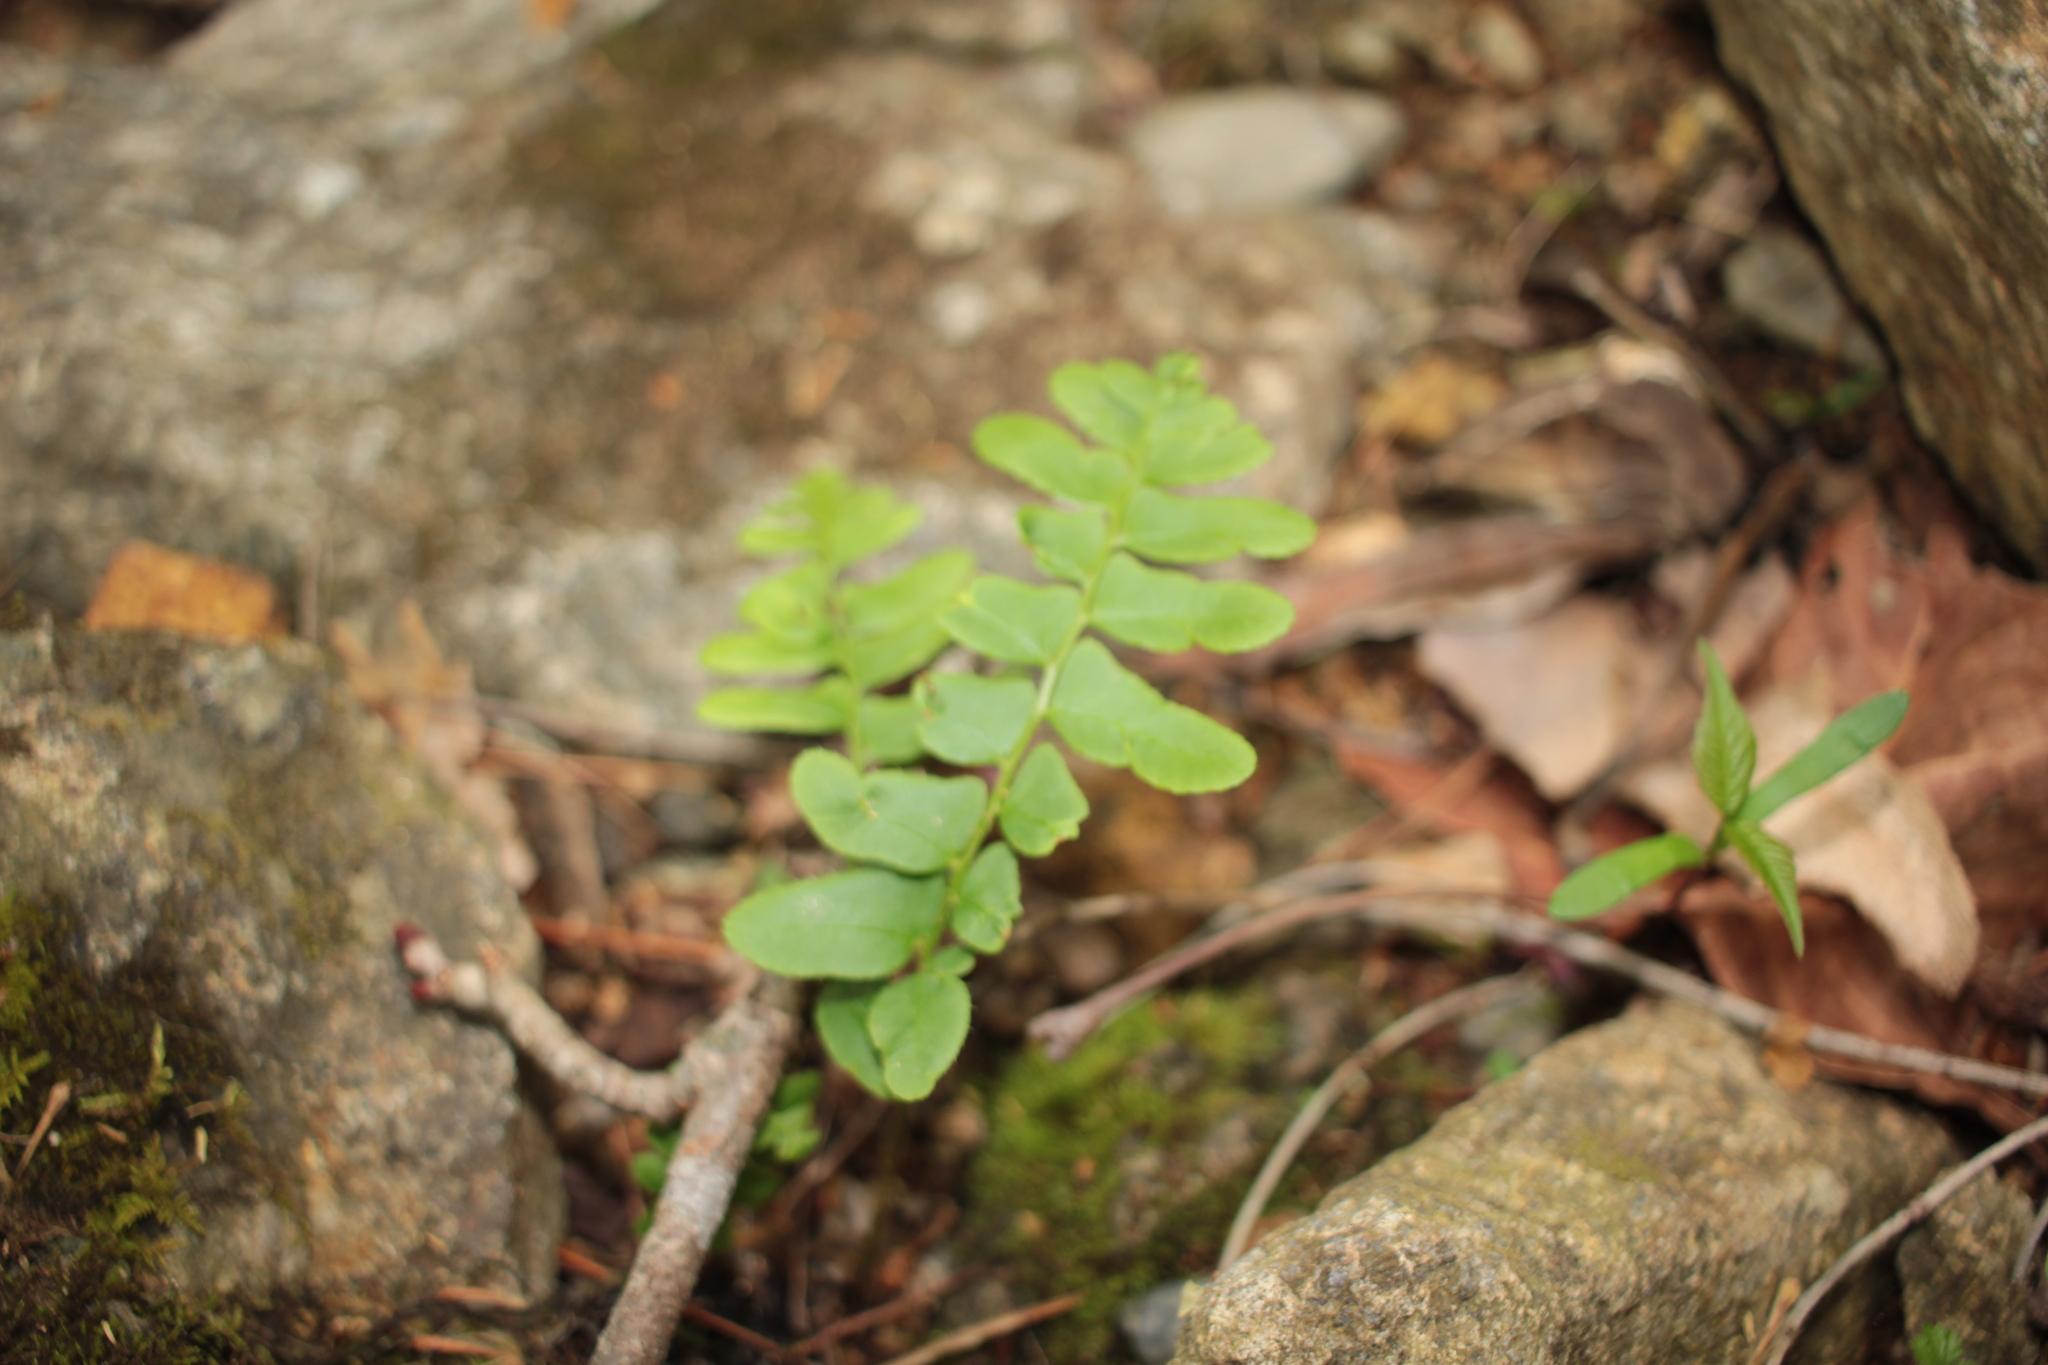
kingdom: Plantae
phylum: Tracheophyta
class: Polypodiopsida
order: Polypodiales
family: Dryopteridaceae
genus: Polystichum
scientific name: Polystichum acrostichoides
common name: Christmas fern
